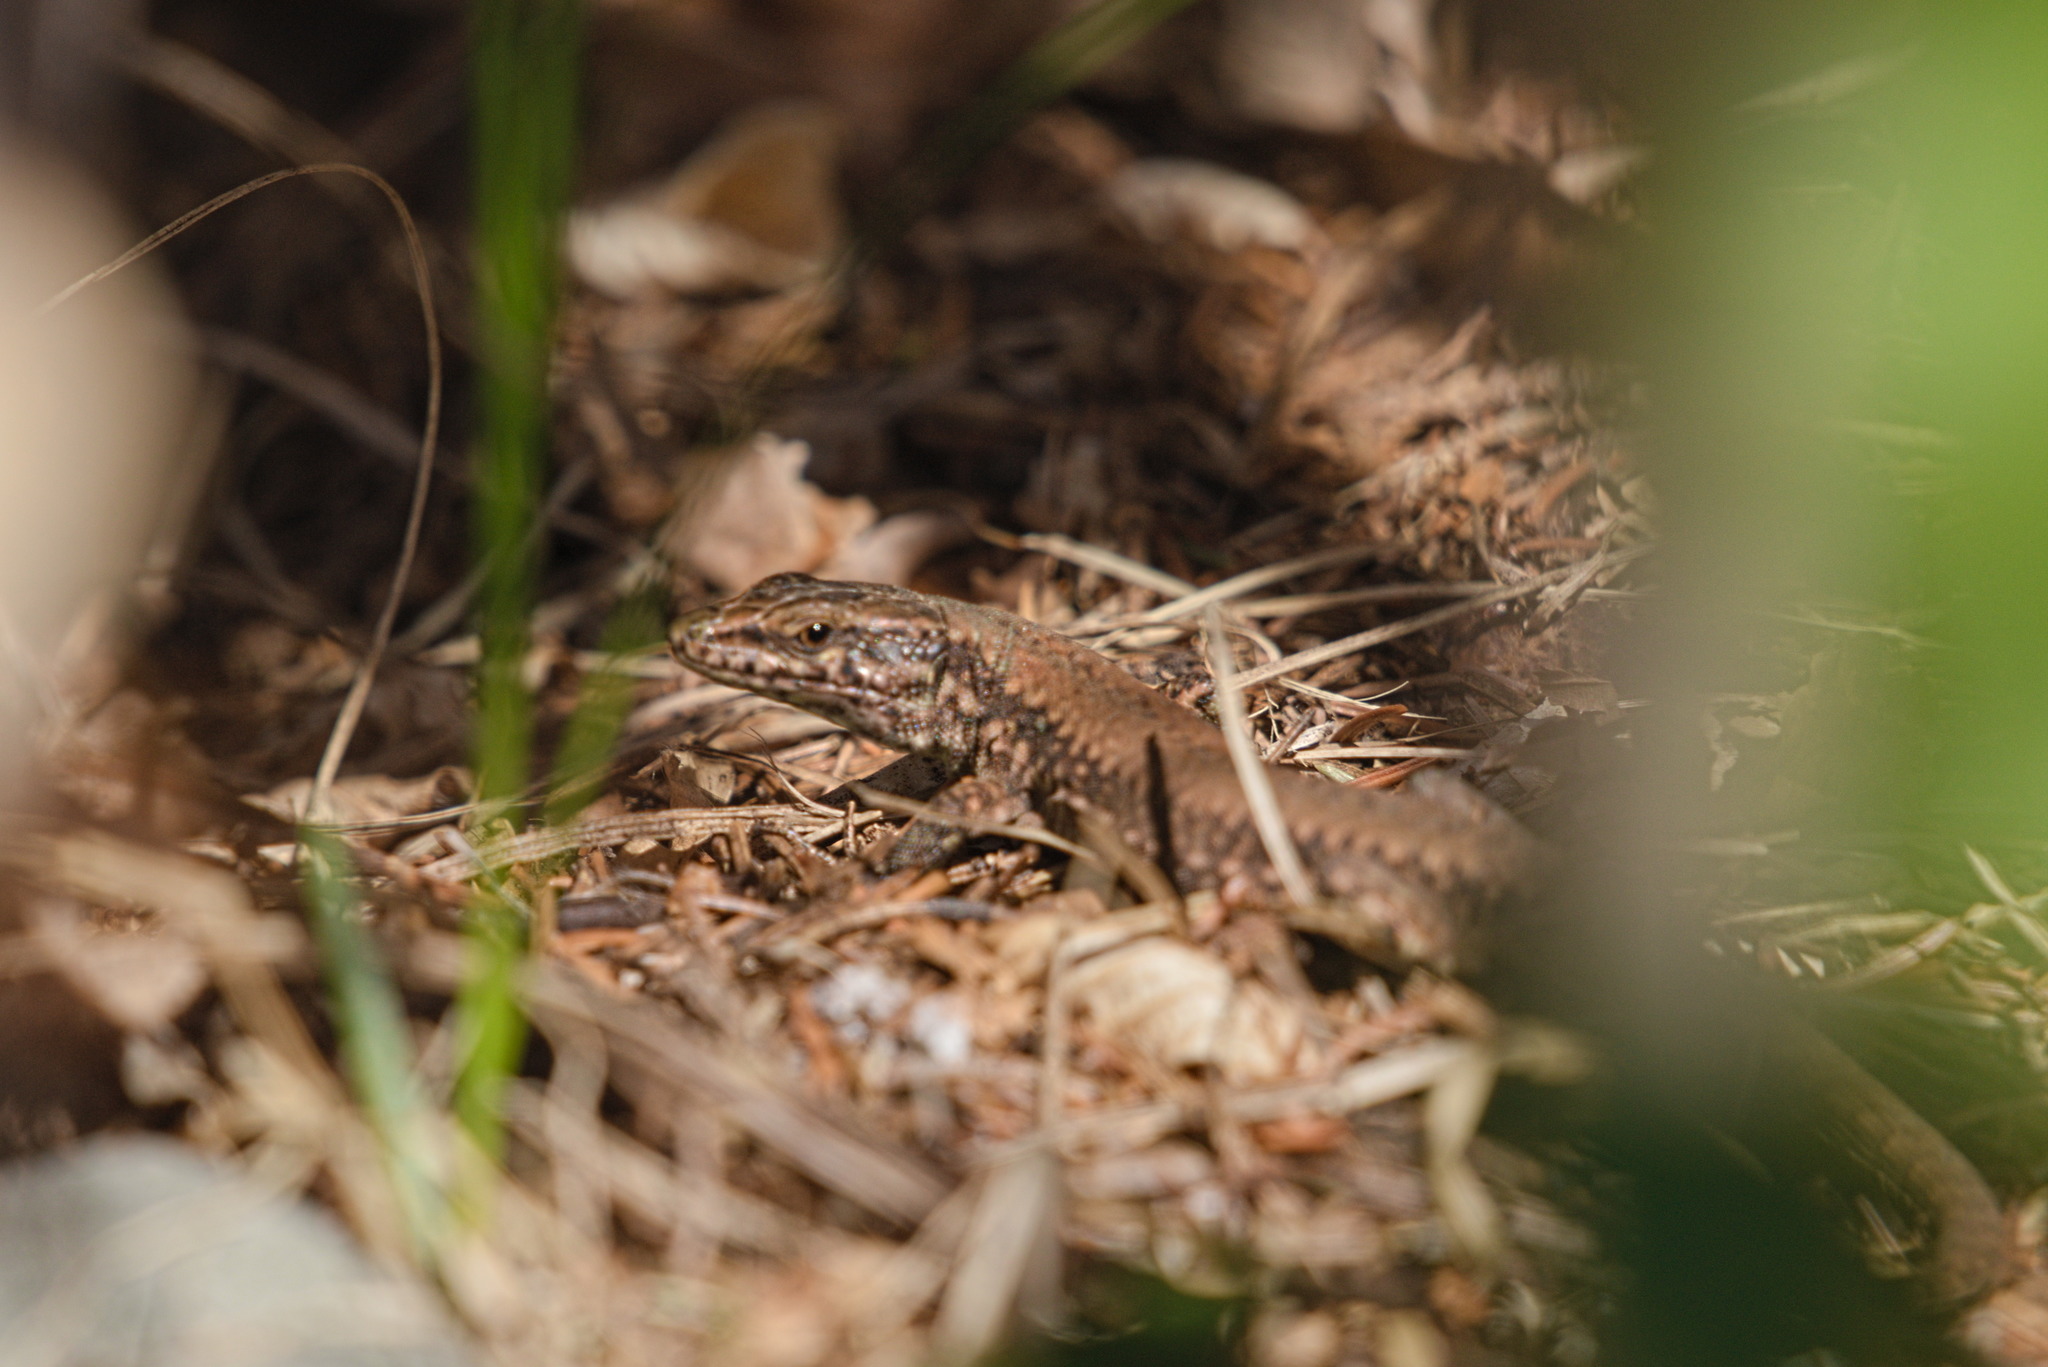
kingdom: Animalia
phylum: Chordata
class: Squamata
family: Lacertidae
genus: Podarcis
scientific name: Podarcis muralis
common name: Common wall lizard
